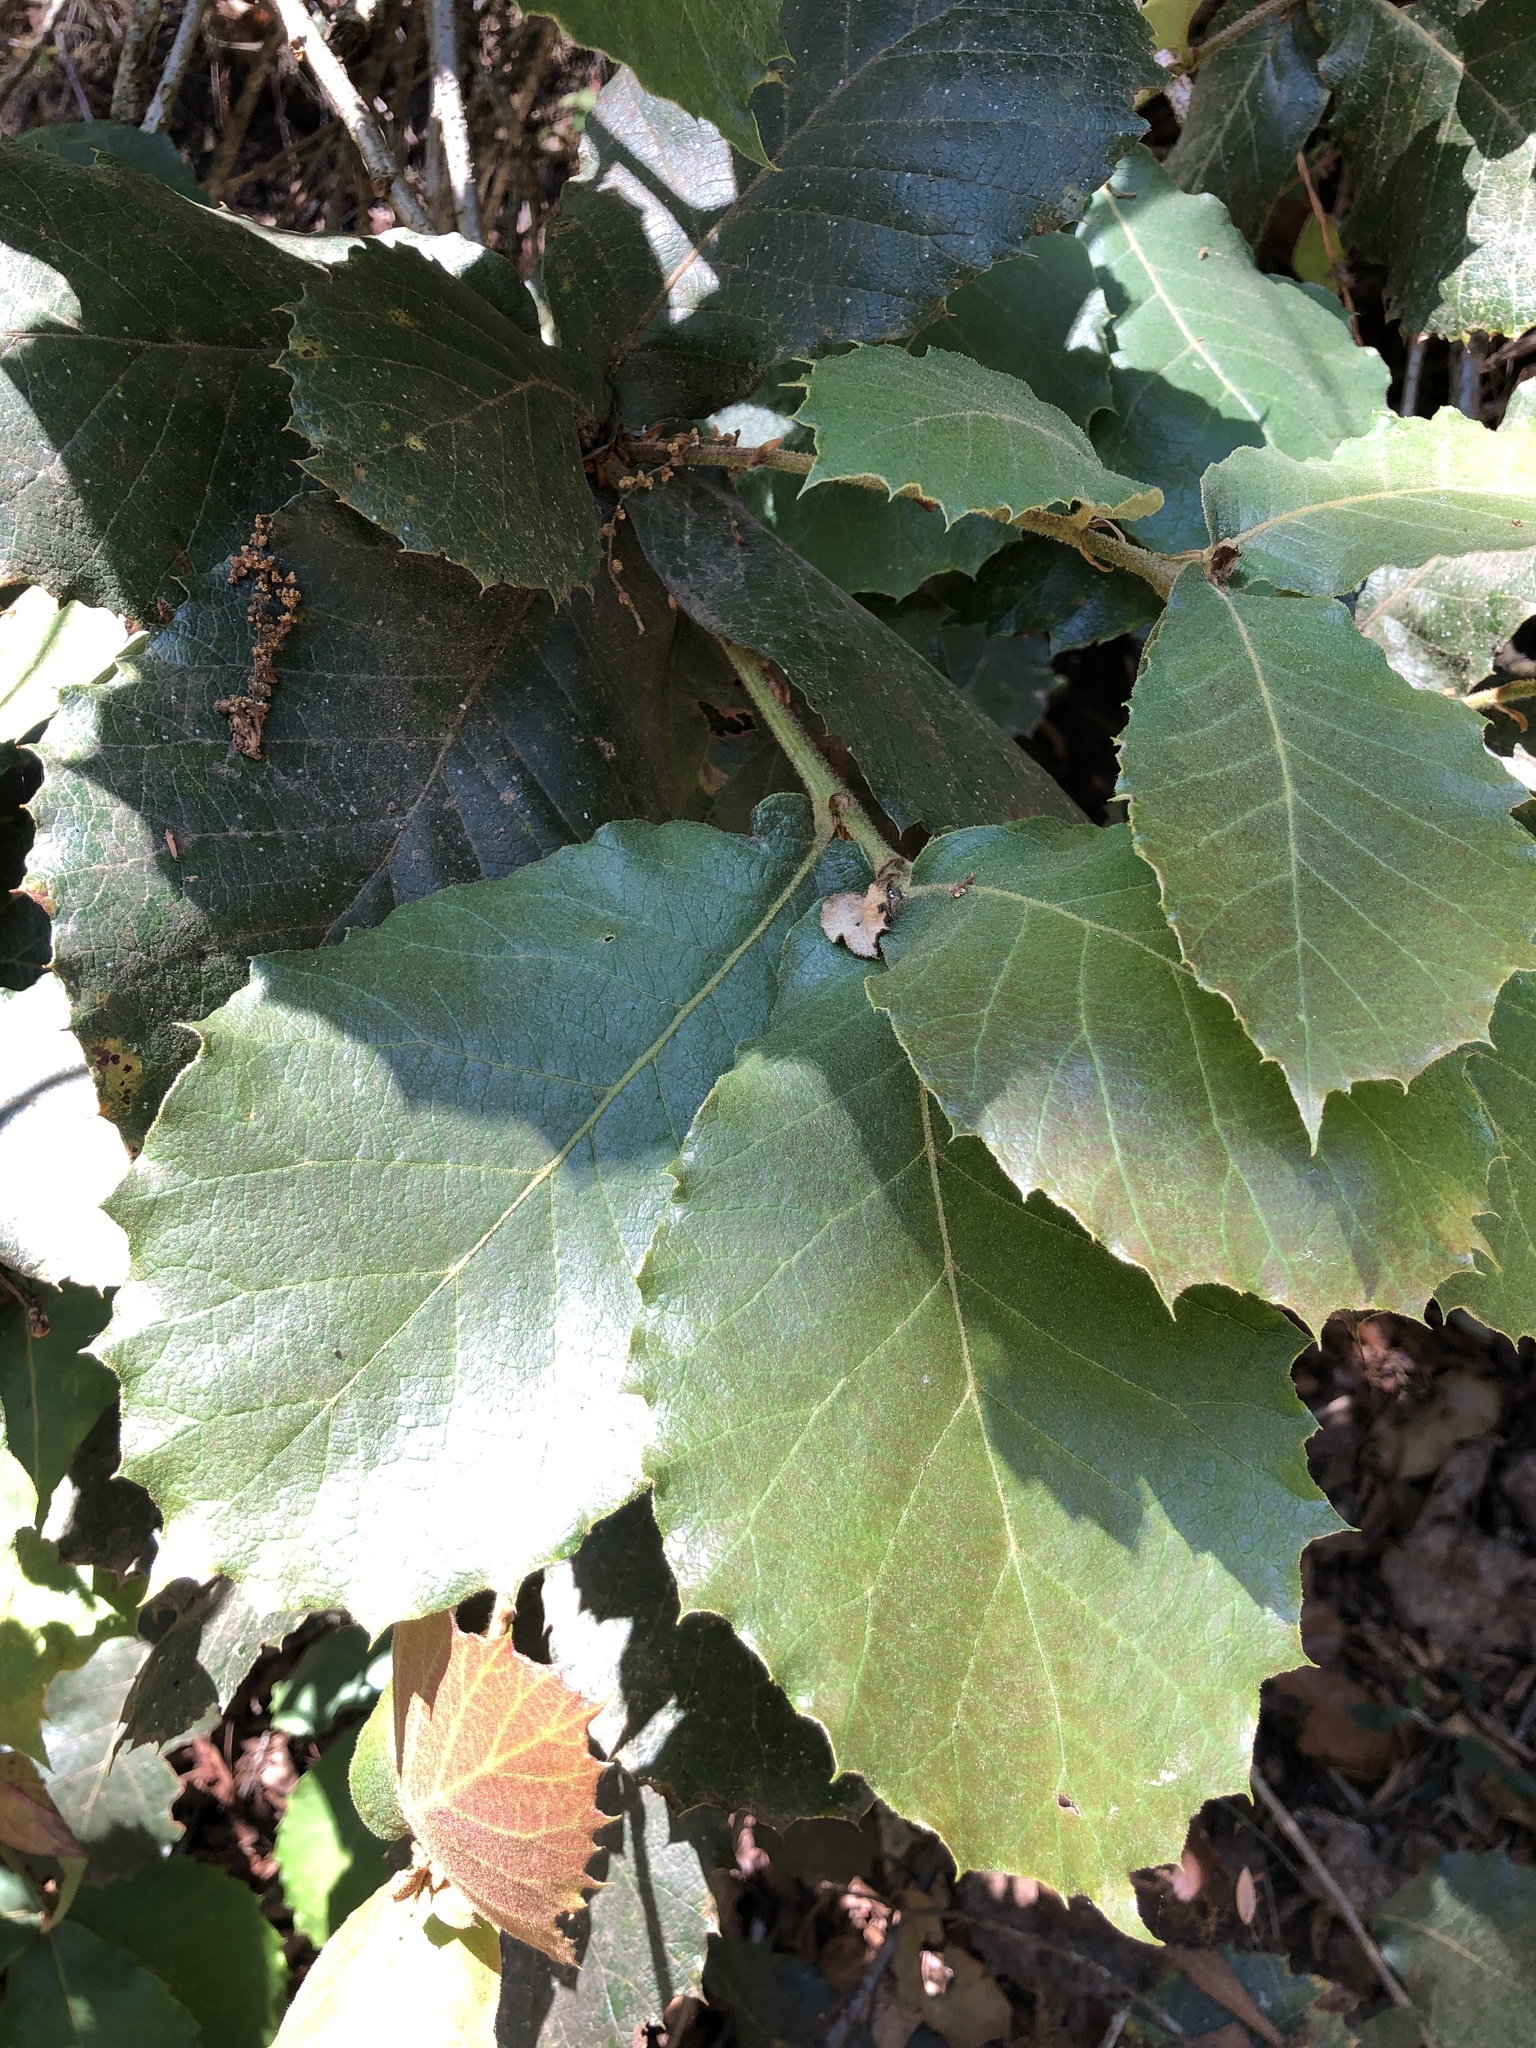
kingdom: Plantae
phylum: Tracheophyta
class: Magnoliopsida
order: Fagales
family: Fagaceae
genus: Quercus
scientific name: Quercus rugosa
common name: Netleaf oak
